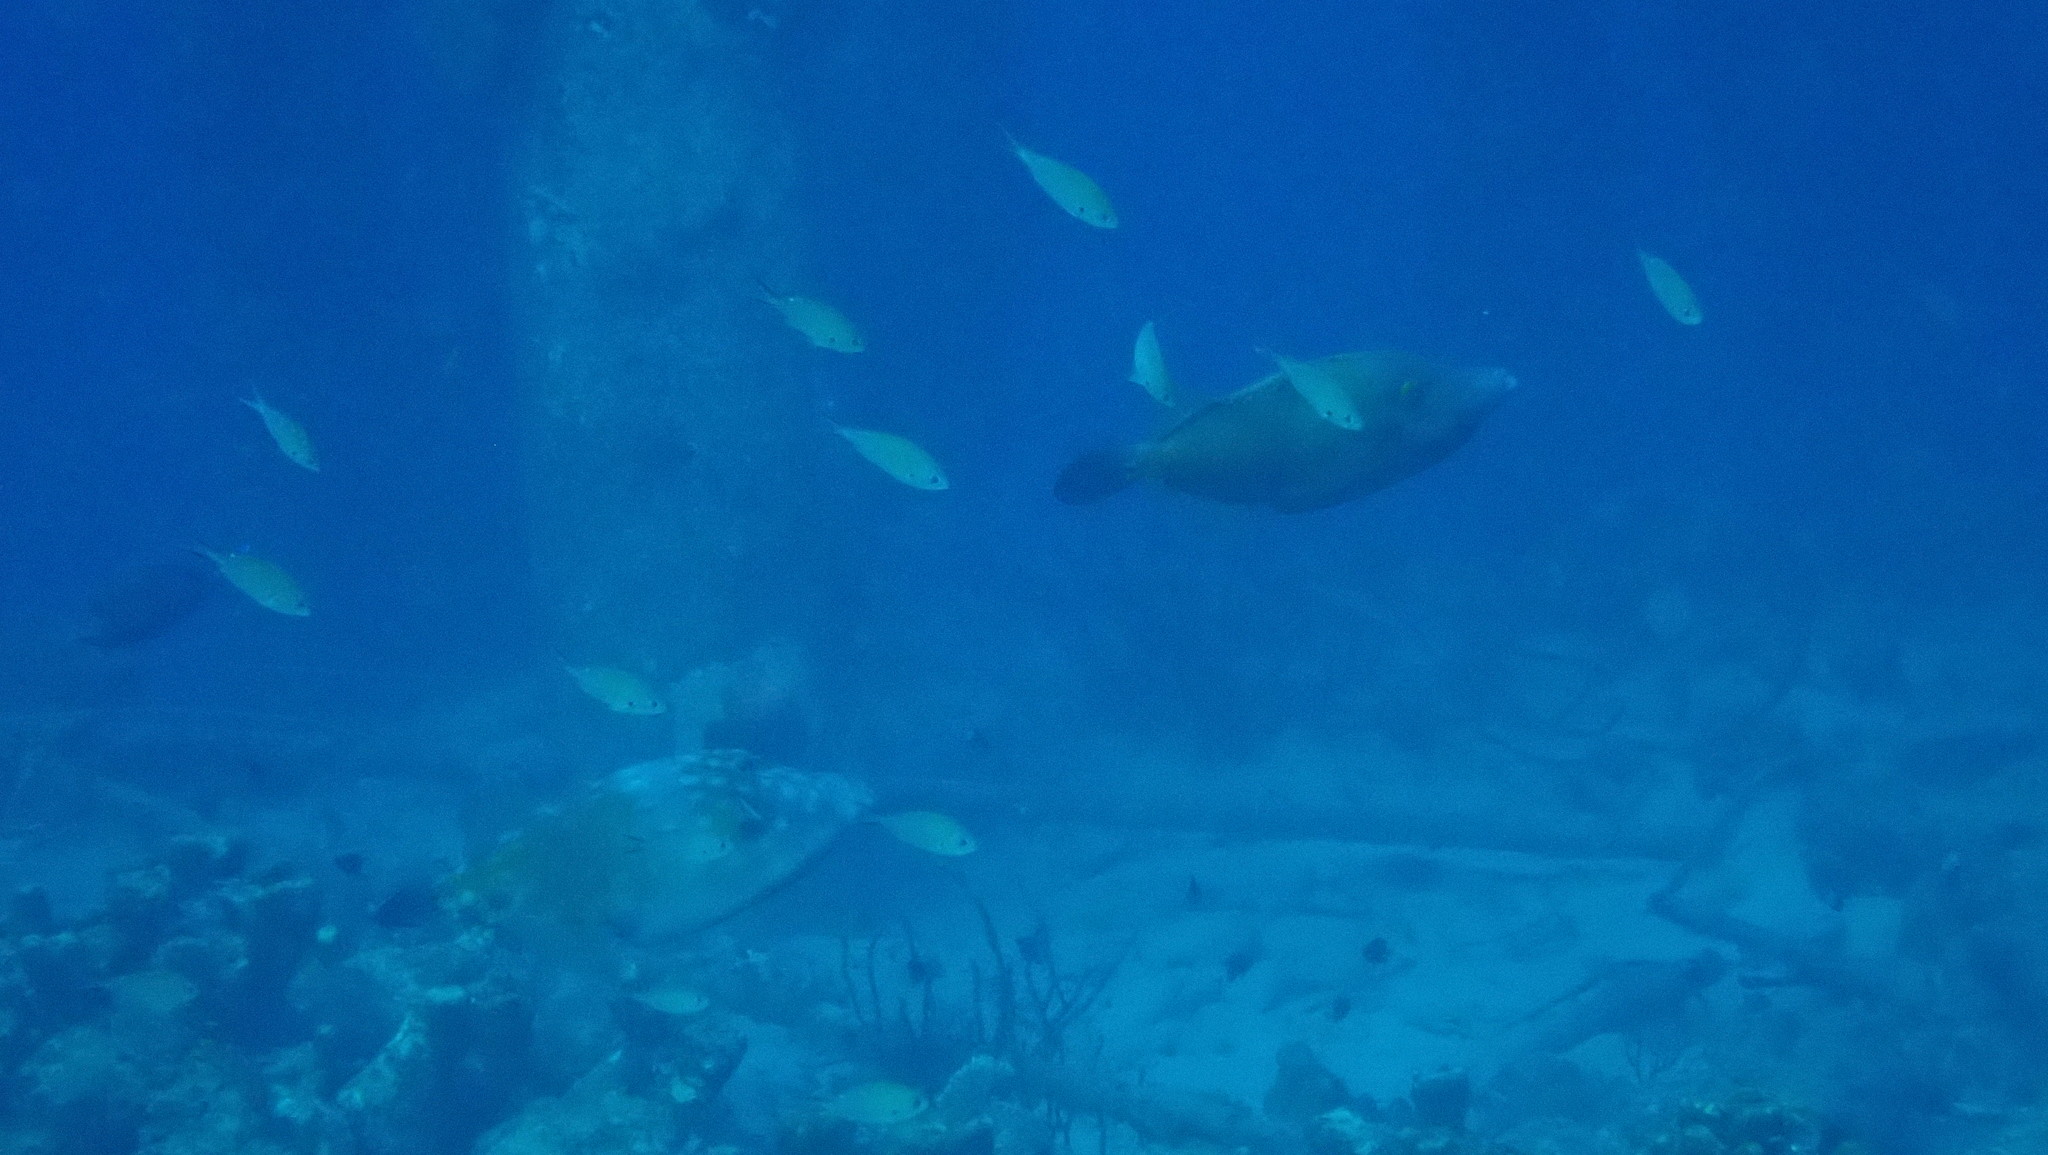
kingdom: Animalia
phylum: Chordata
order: Tetraodontiformes
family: Monacanthidae
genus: Cantherhines
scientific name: Cantherhines macrocerus
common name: Whitespotted filefish
